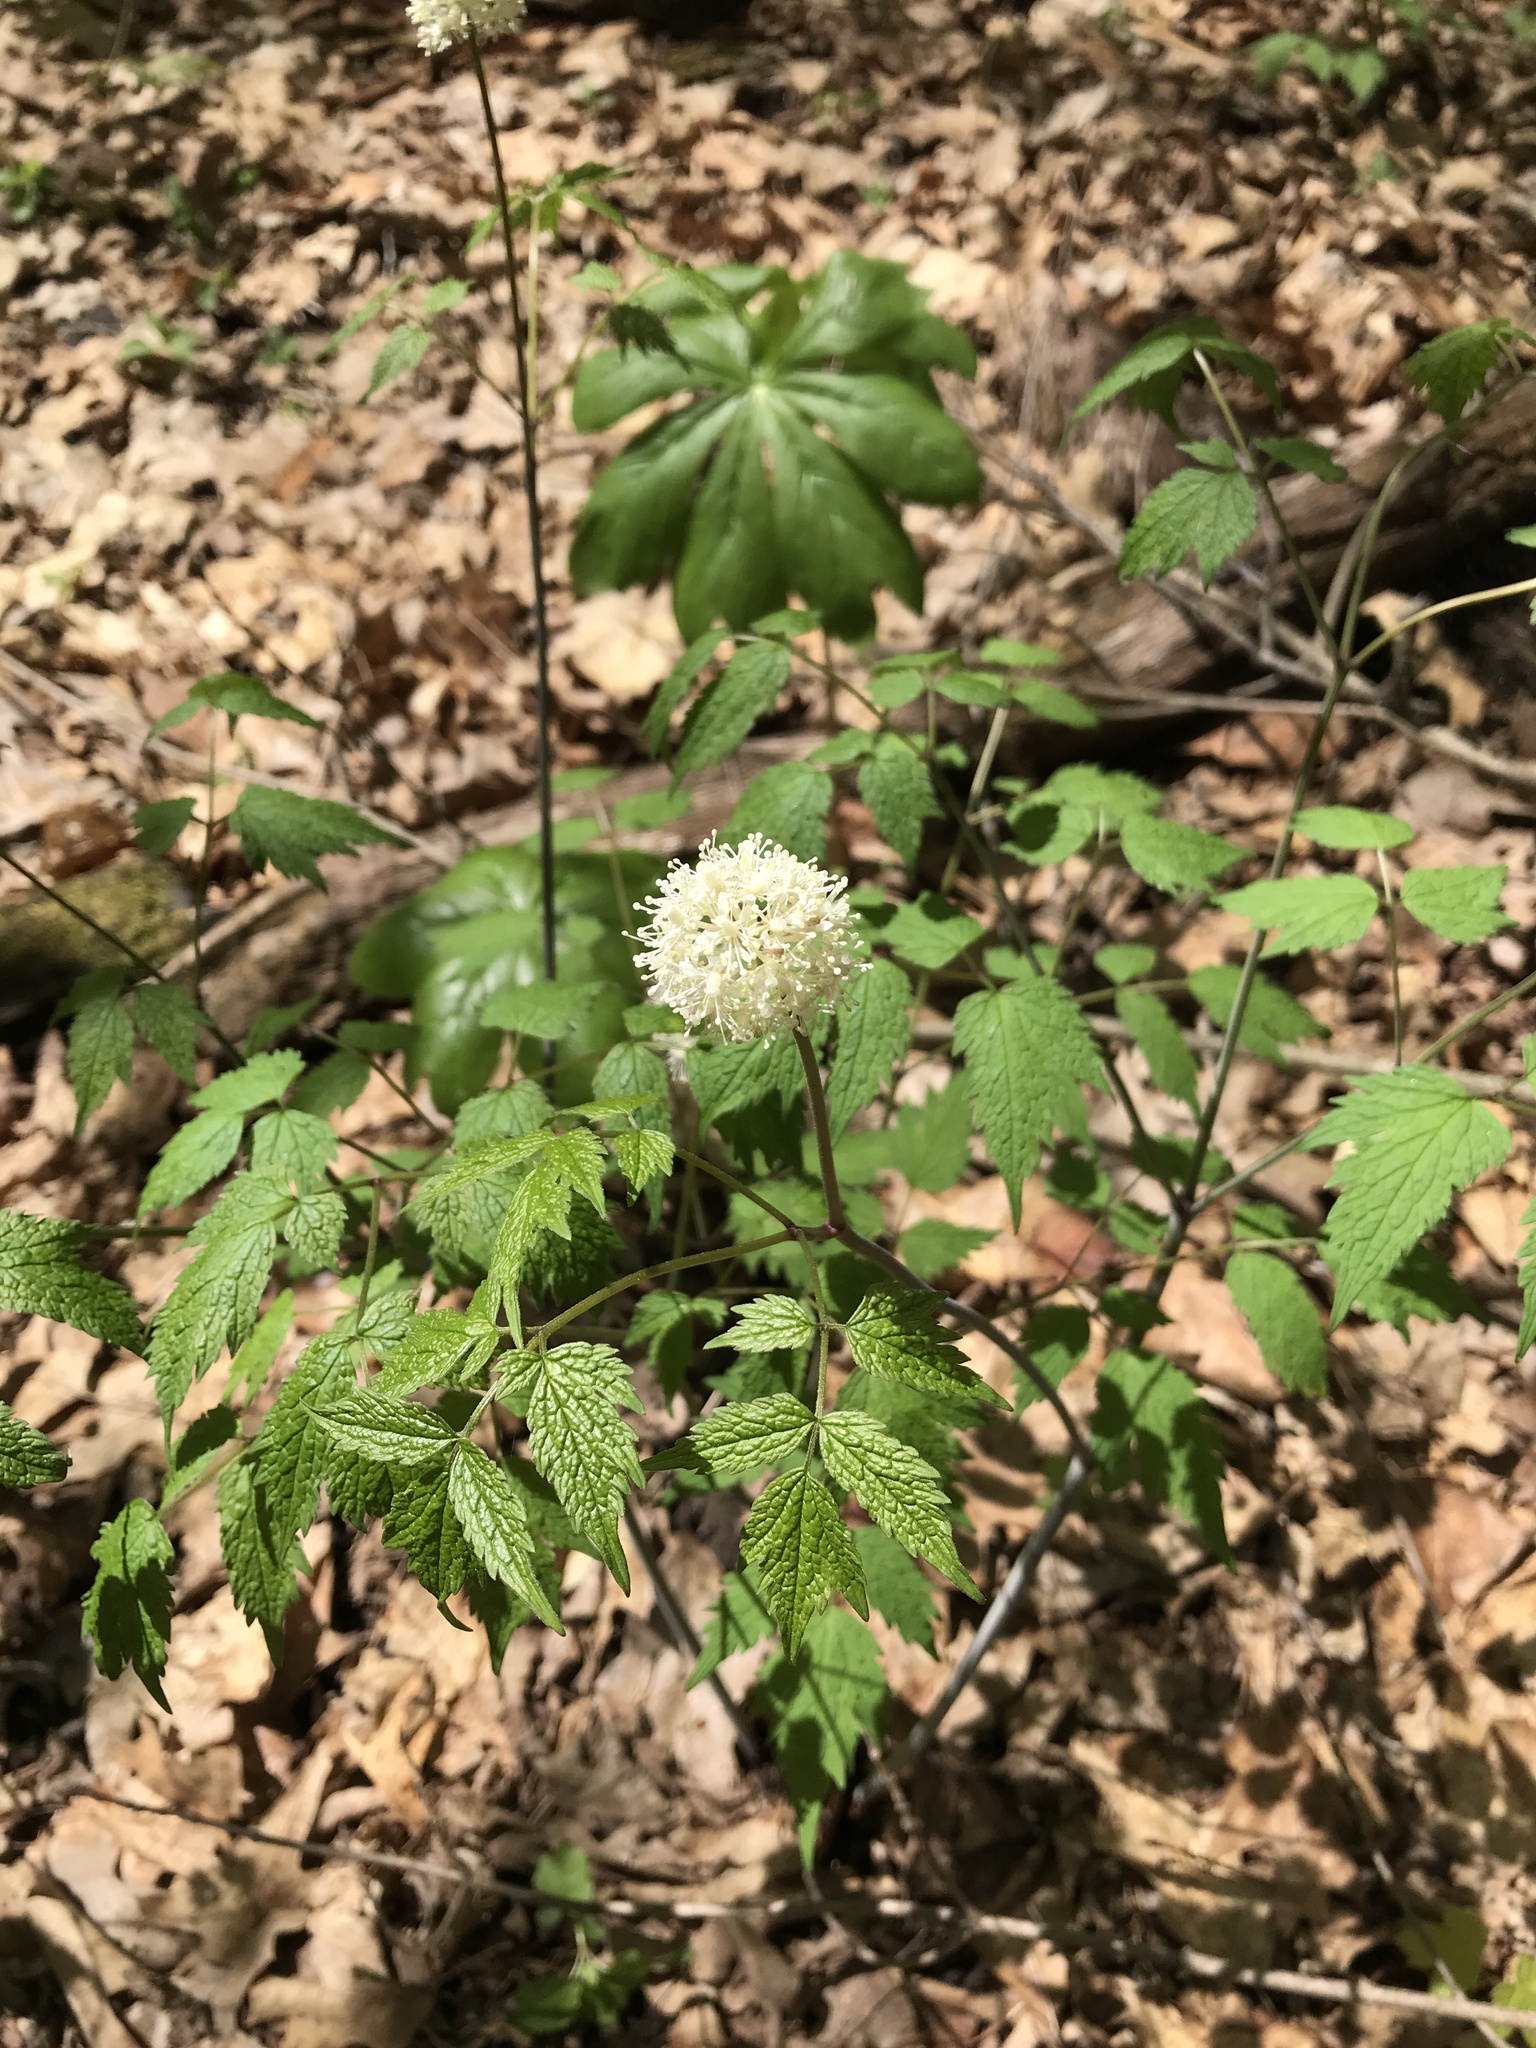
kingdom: Plantae
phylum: Tracheophyta
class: Magnoliopsida
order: Ranunculales
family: Ranunculaceae
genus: Actaea
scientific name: Actaea pachypoda
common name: Doll's-eyes
